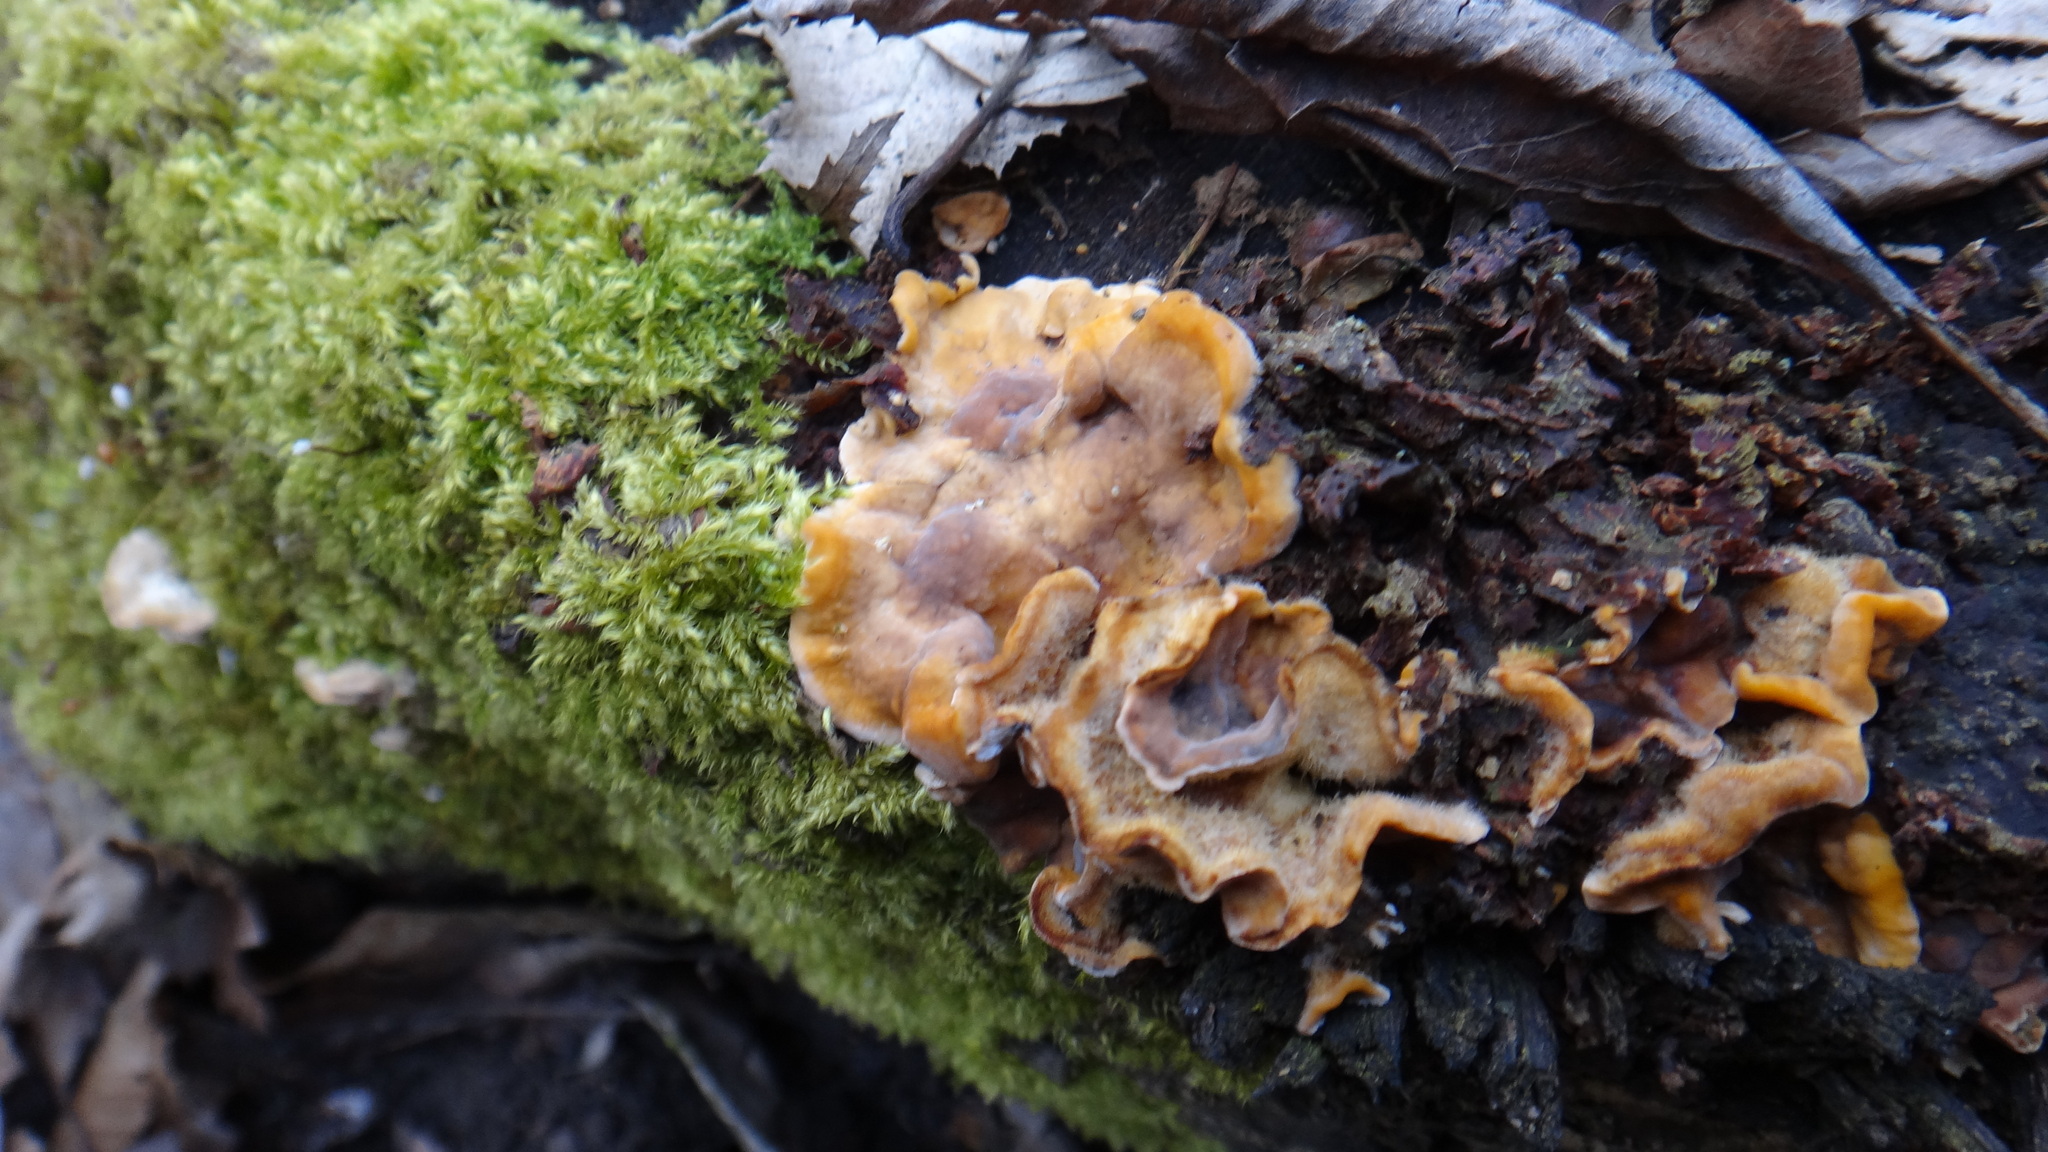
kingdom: Fungi
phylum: Basidiomycota
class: Agaricomycetes
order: Russulales
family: Stereaceae
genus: Stereum
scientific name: Stereum hirsutum
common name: Hairy curtain crust
